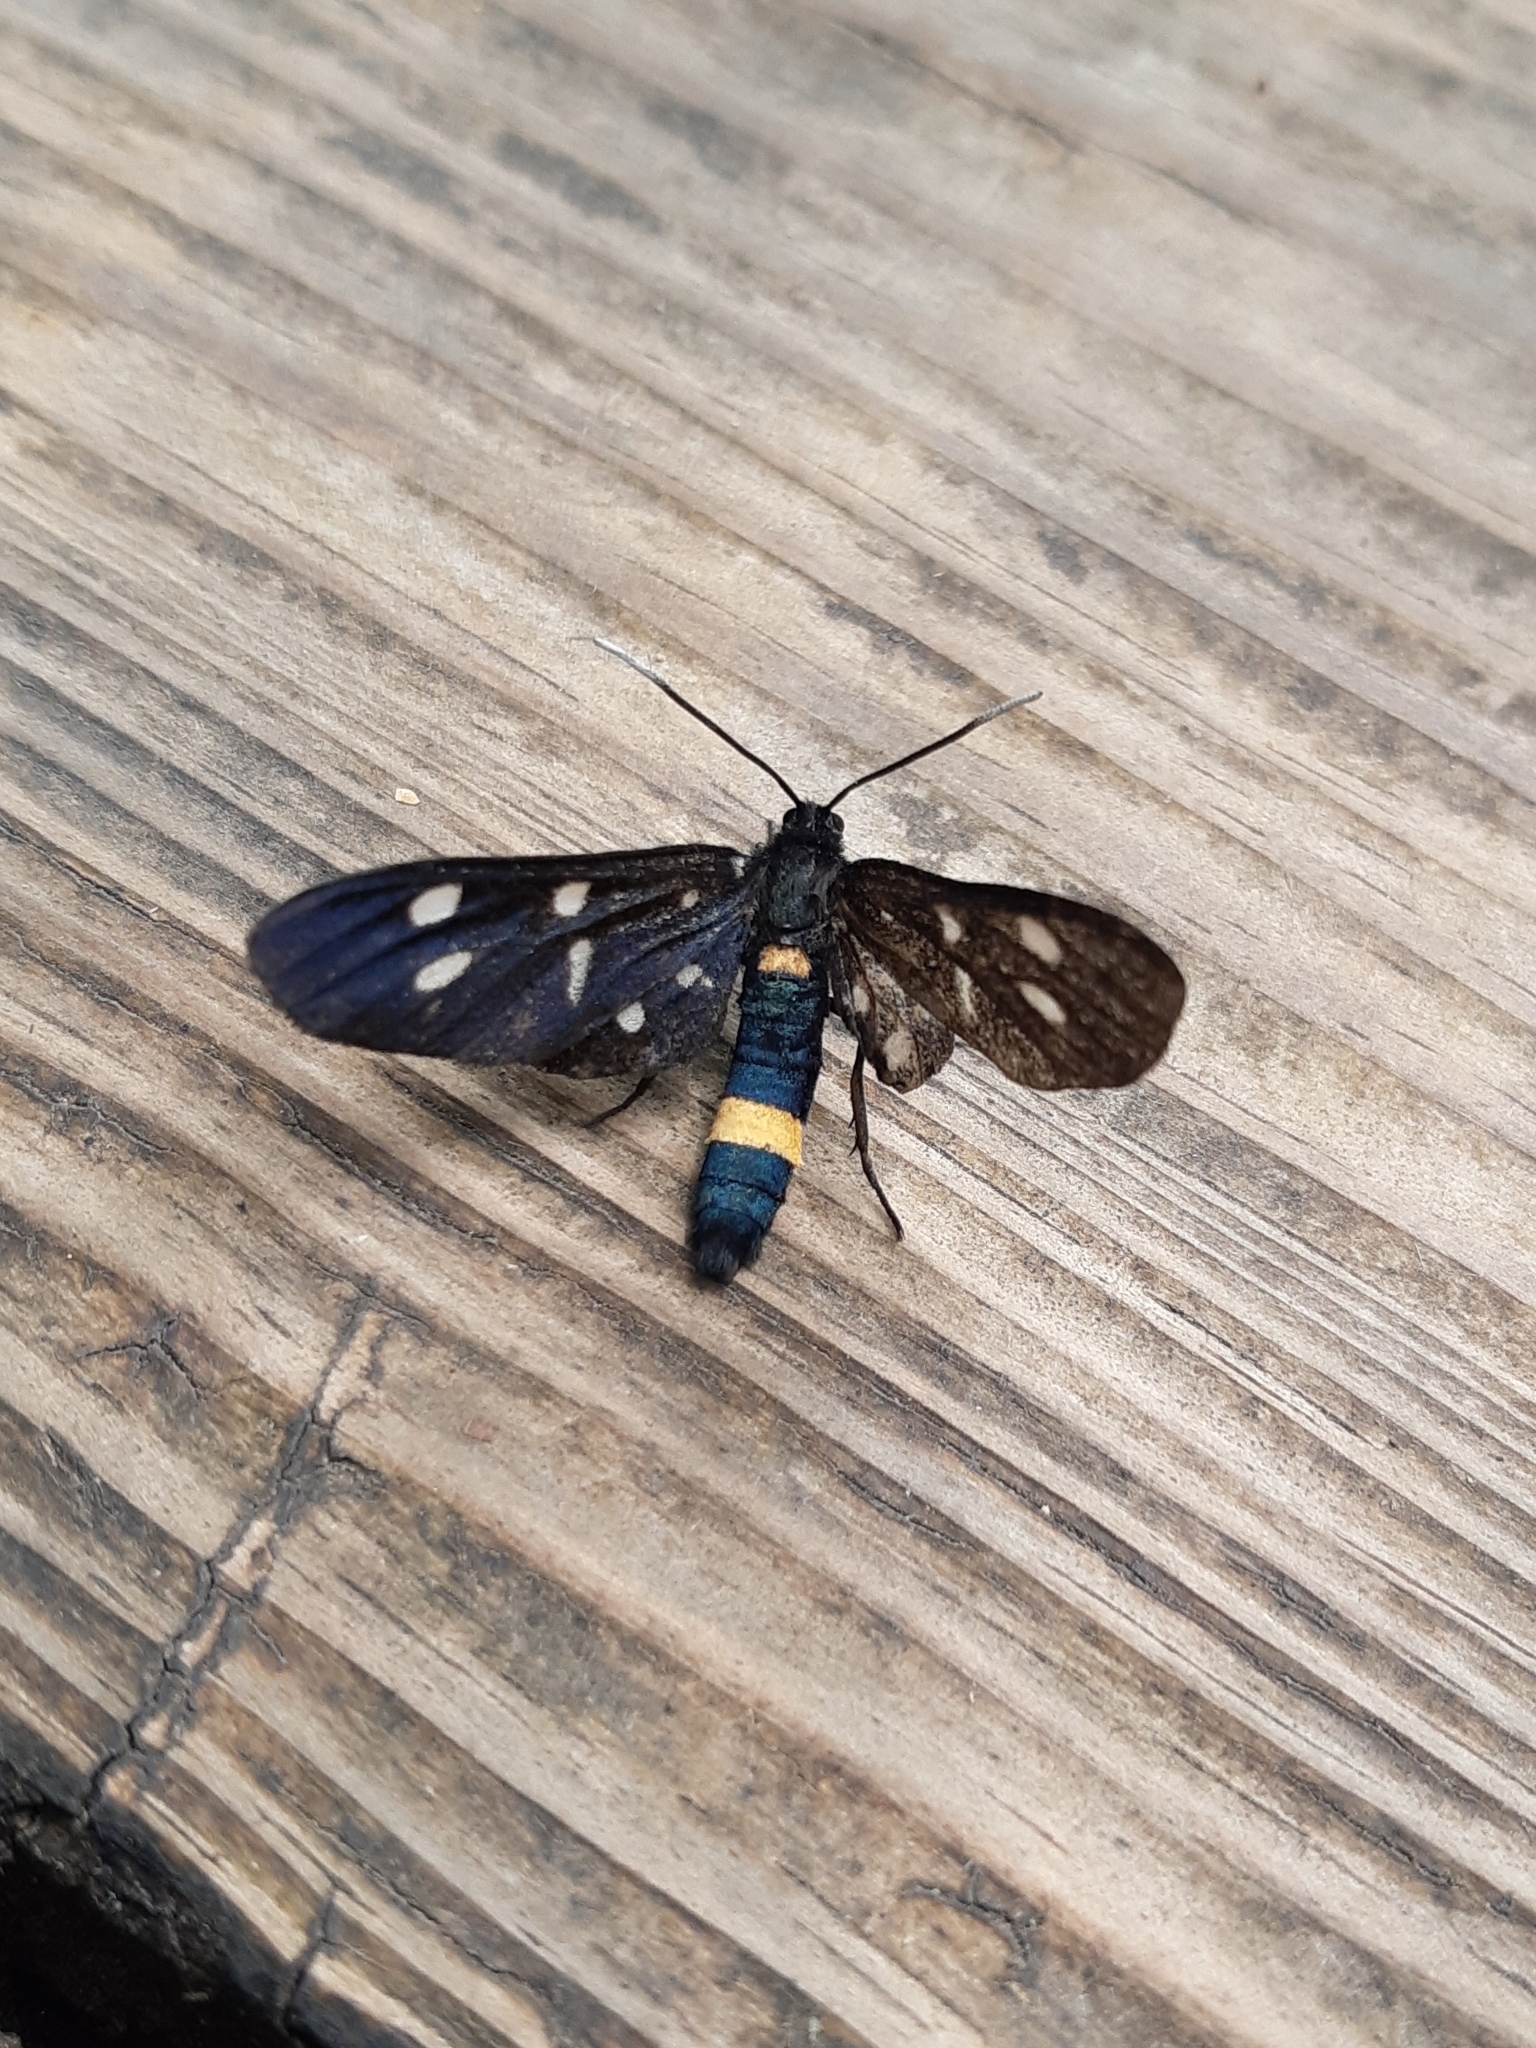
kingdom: Animalia
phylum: Arthropoda
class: Insecta
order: Lepidoptera
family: Erebidae
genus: Amata
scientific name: Amata phegea
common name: Nine-spotted
